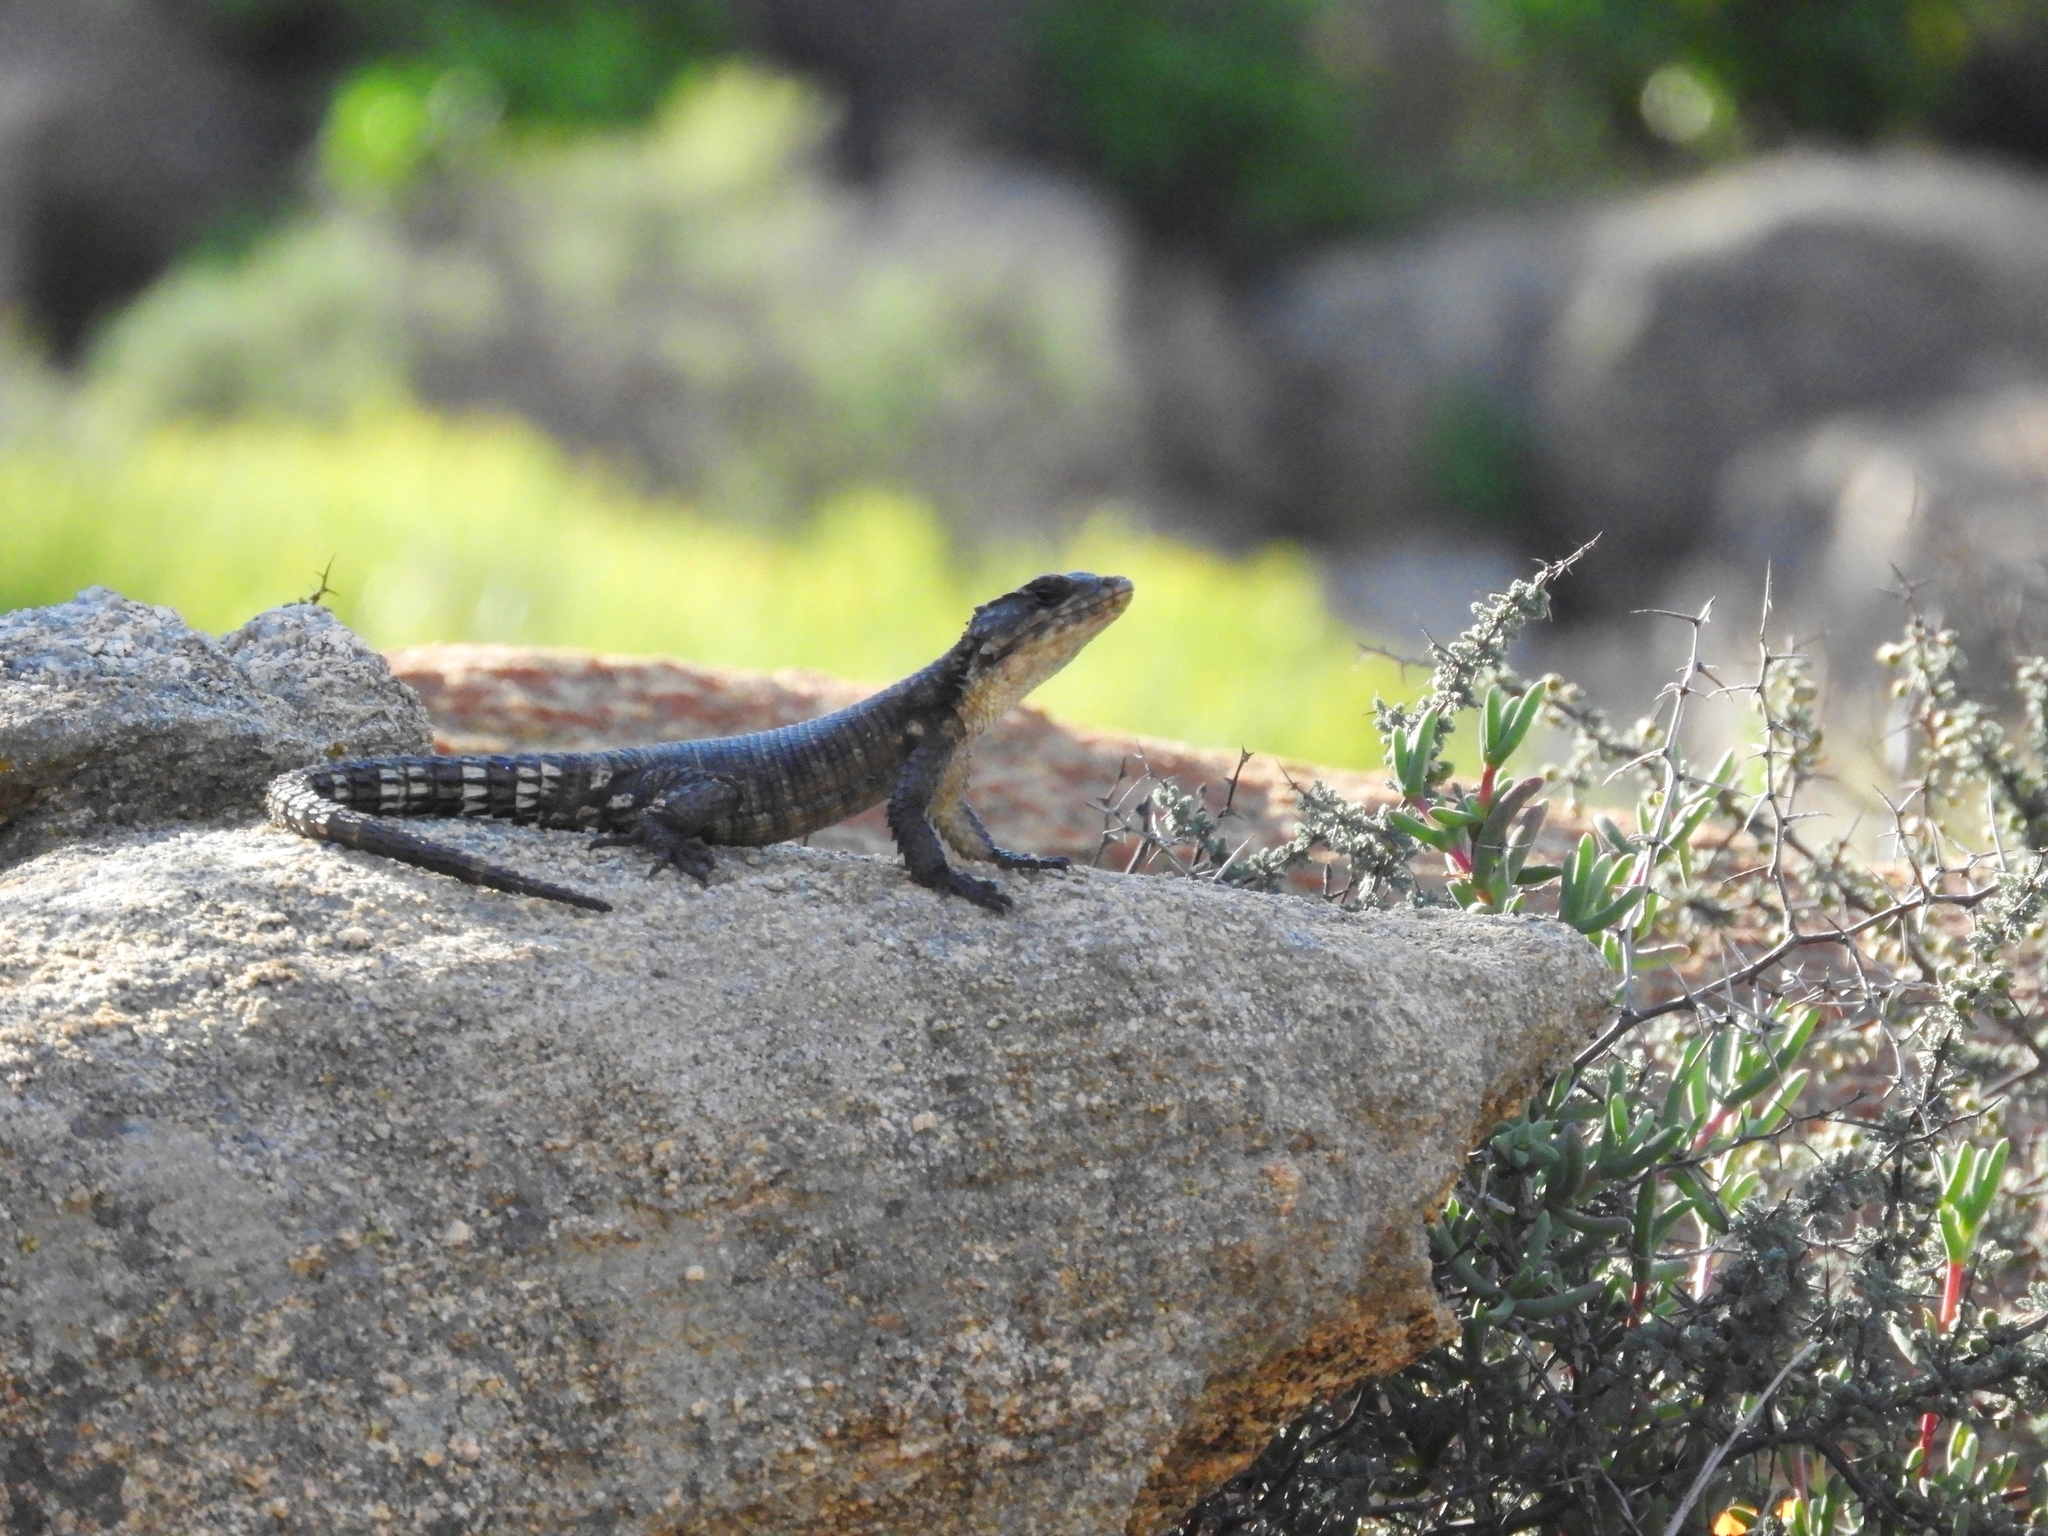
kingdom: Animalia
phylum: Chordata
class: Squamata
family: Cordylidae
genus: Karusasaurus
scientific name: Karusasaurus polyzonus
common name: Karoo girdled lizard
